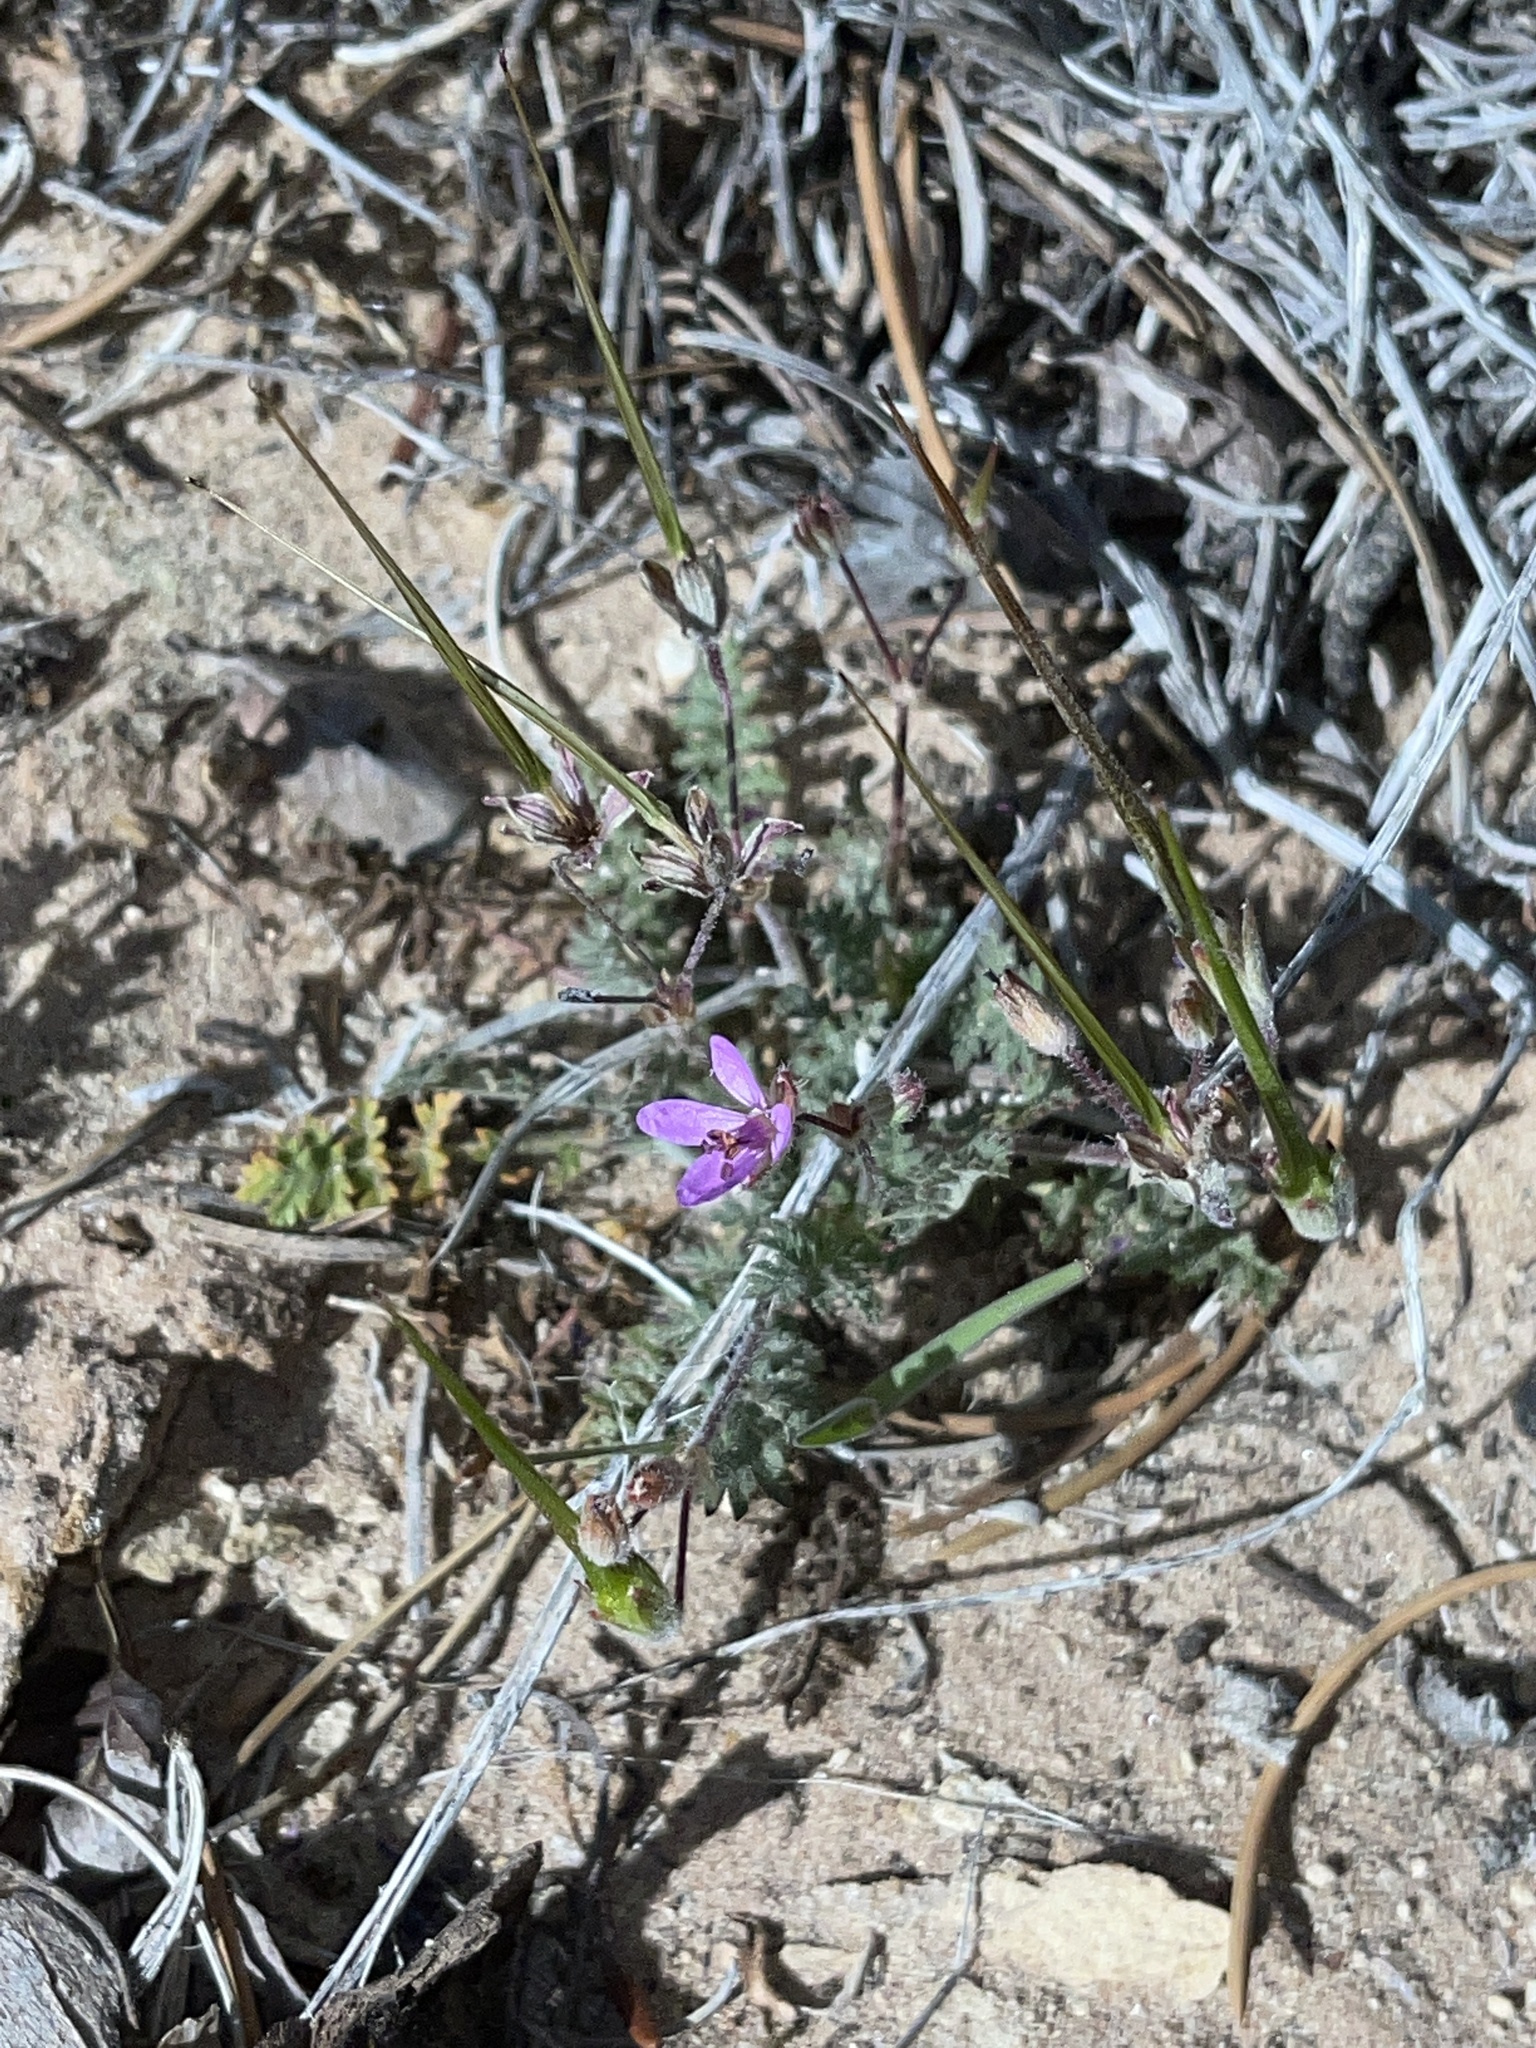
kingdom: Plantae
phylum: Tracheophyta
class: Magnoliopsida
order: Geraniales
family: Geraniaceae
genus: Erodium
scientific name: Erodium cicutarium
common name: Common stork's-bill
